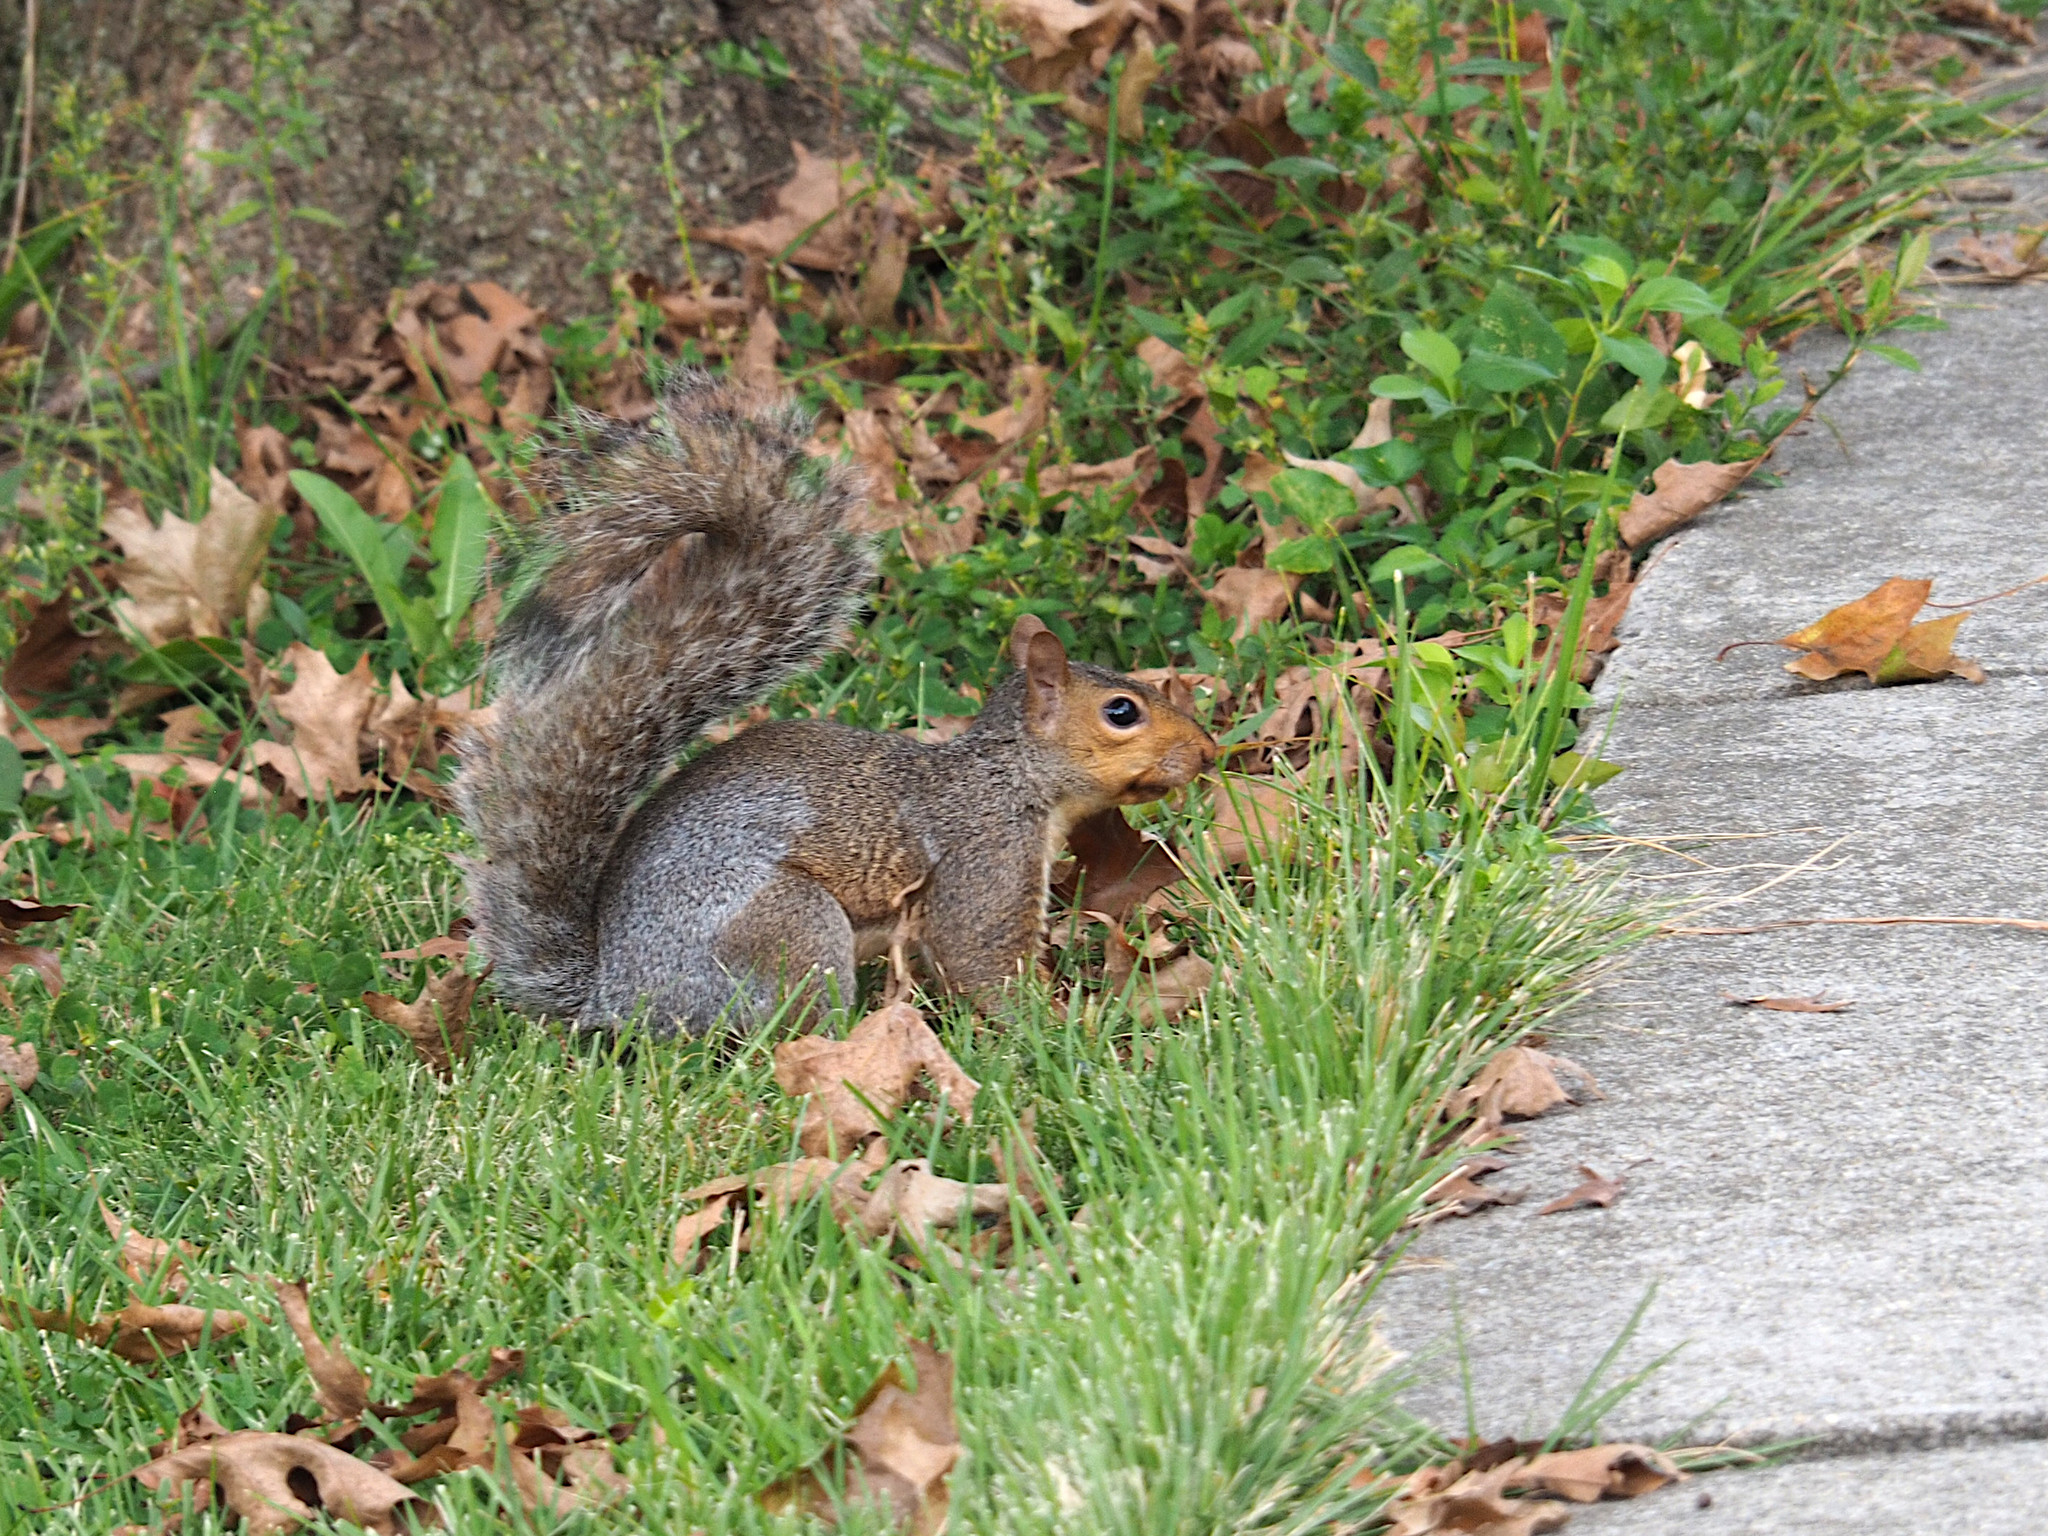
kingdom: Animalia
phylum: Chordata
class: Mammalia
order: Rodentia
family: Sciuridae
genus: Sciurus
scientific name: Sciurus carolinensis
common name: Eastern gray squirrel
